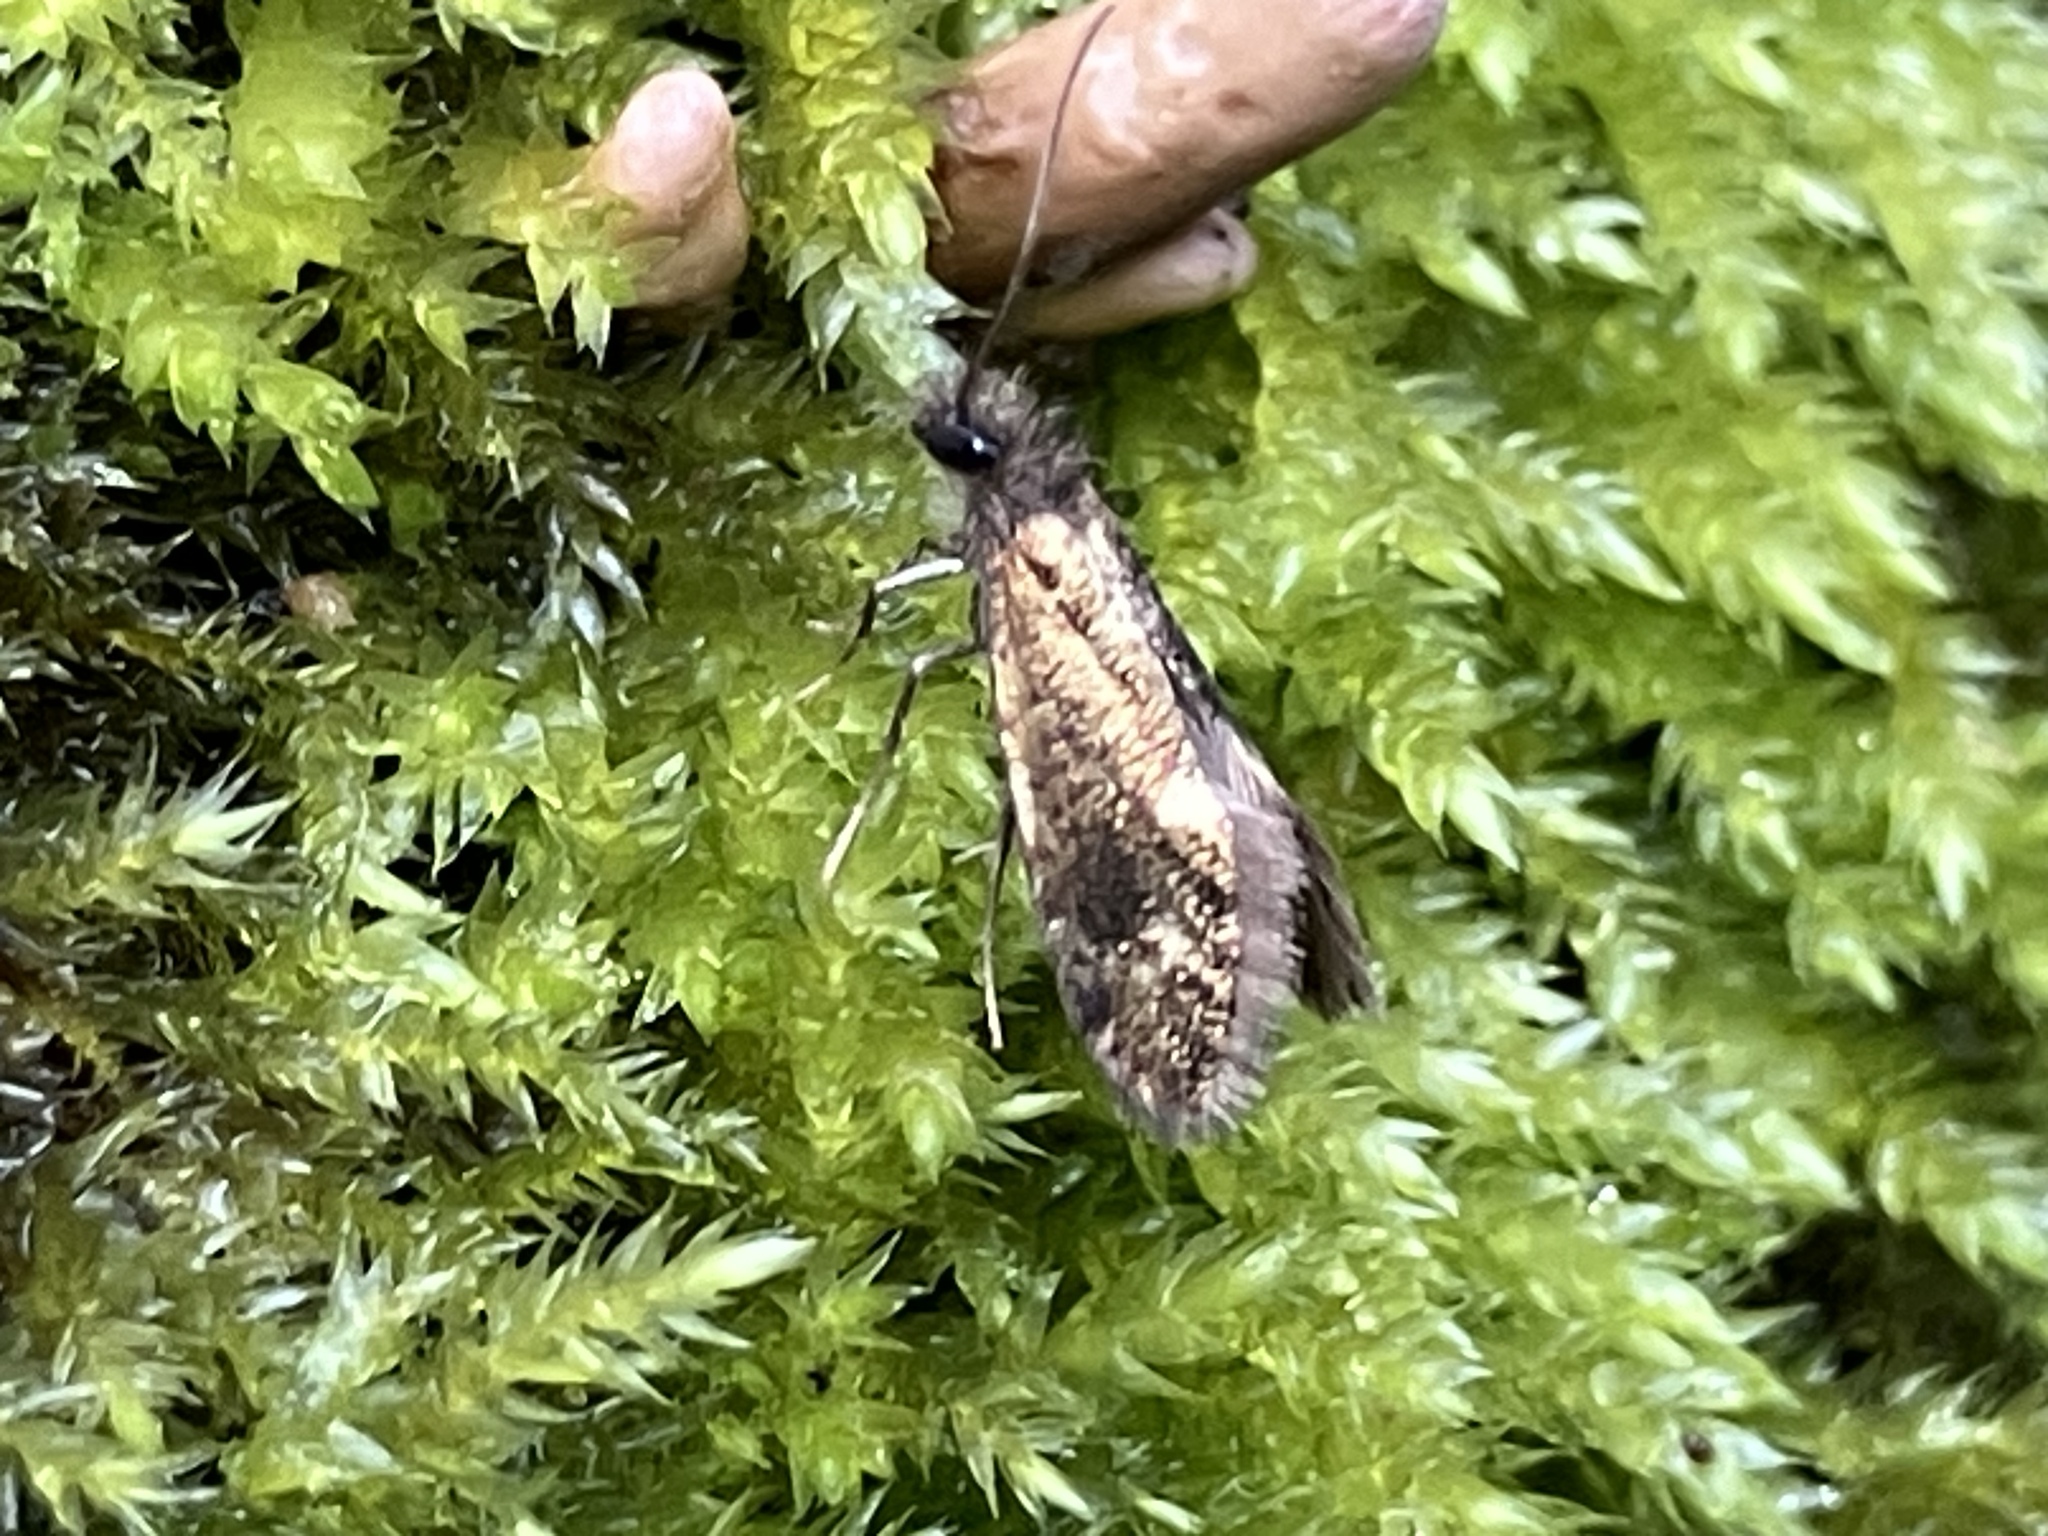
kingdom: Animalia
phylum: Arthropoda
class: Insecta
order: Lepidoptera
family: Eriocraniidae
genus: Dyseriocrania
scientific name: Dyseriocrania subpurpurella
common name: Common oak purple
